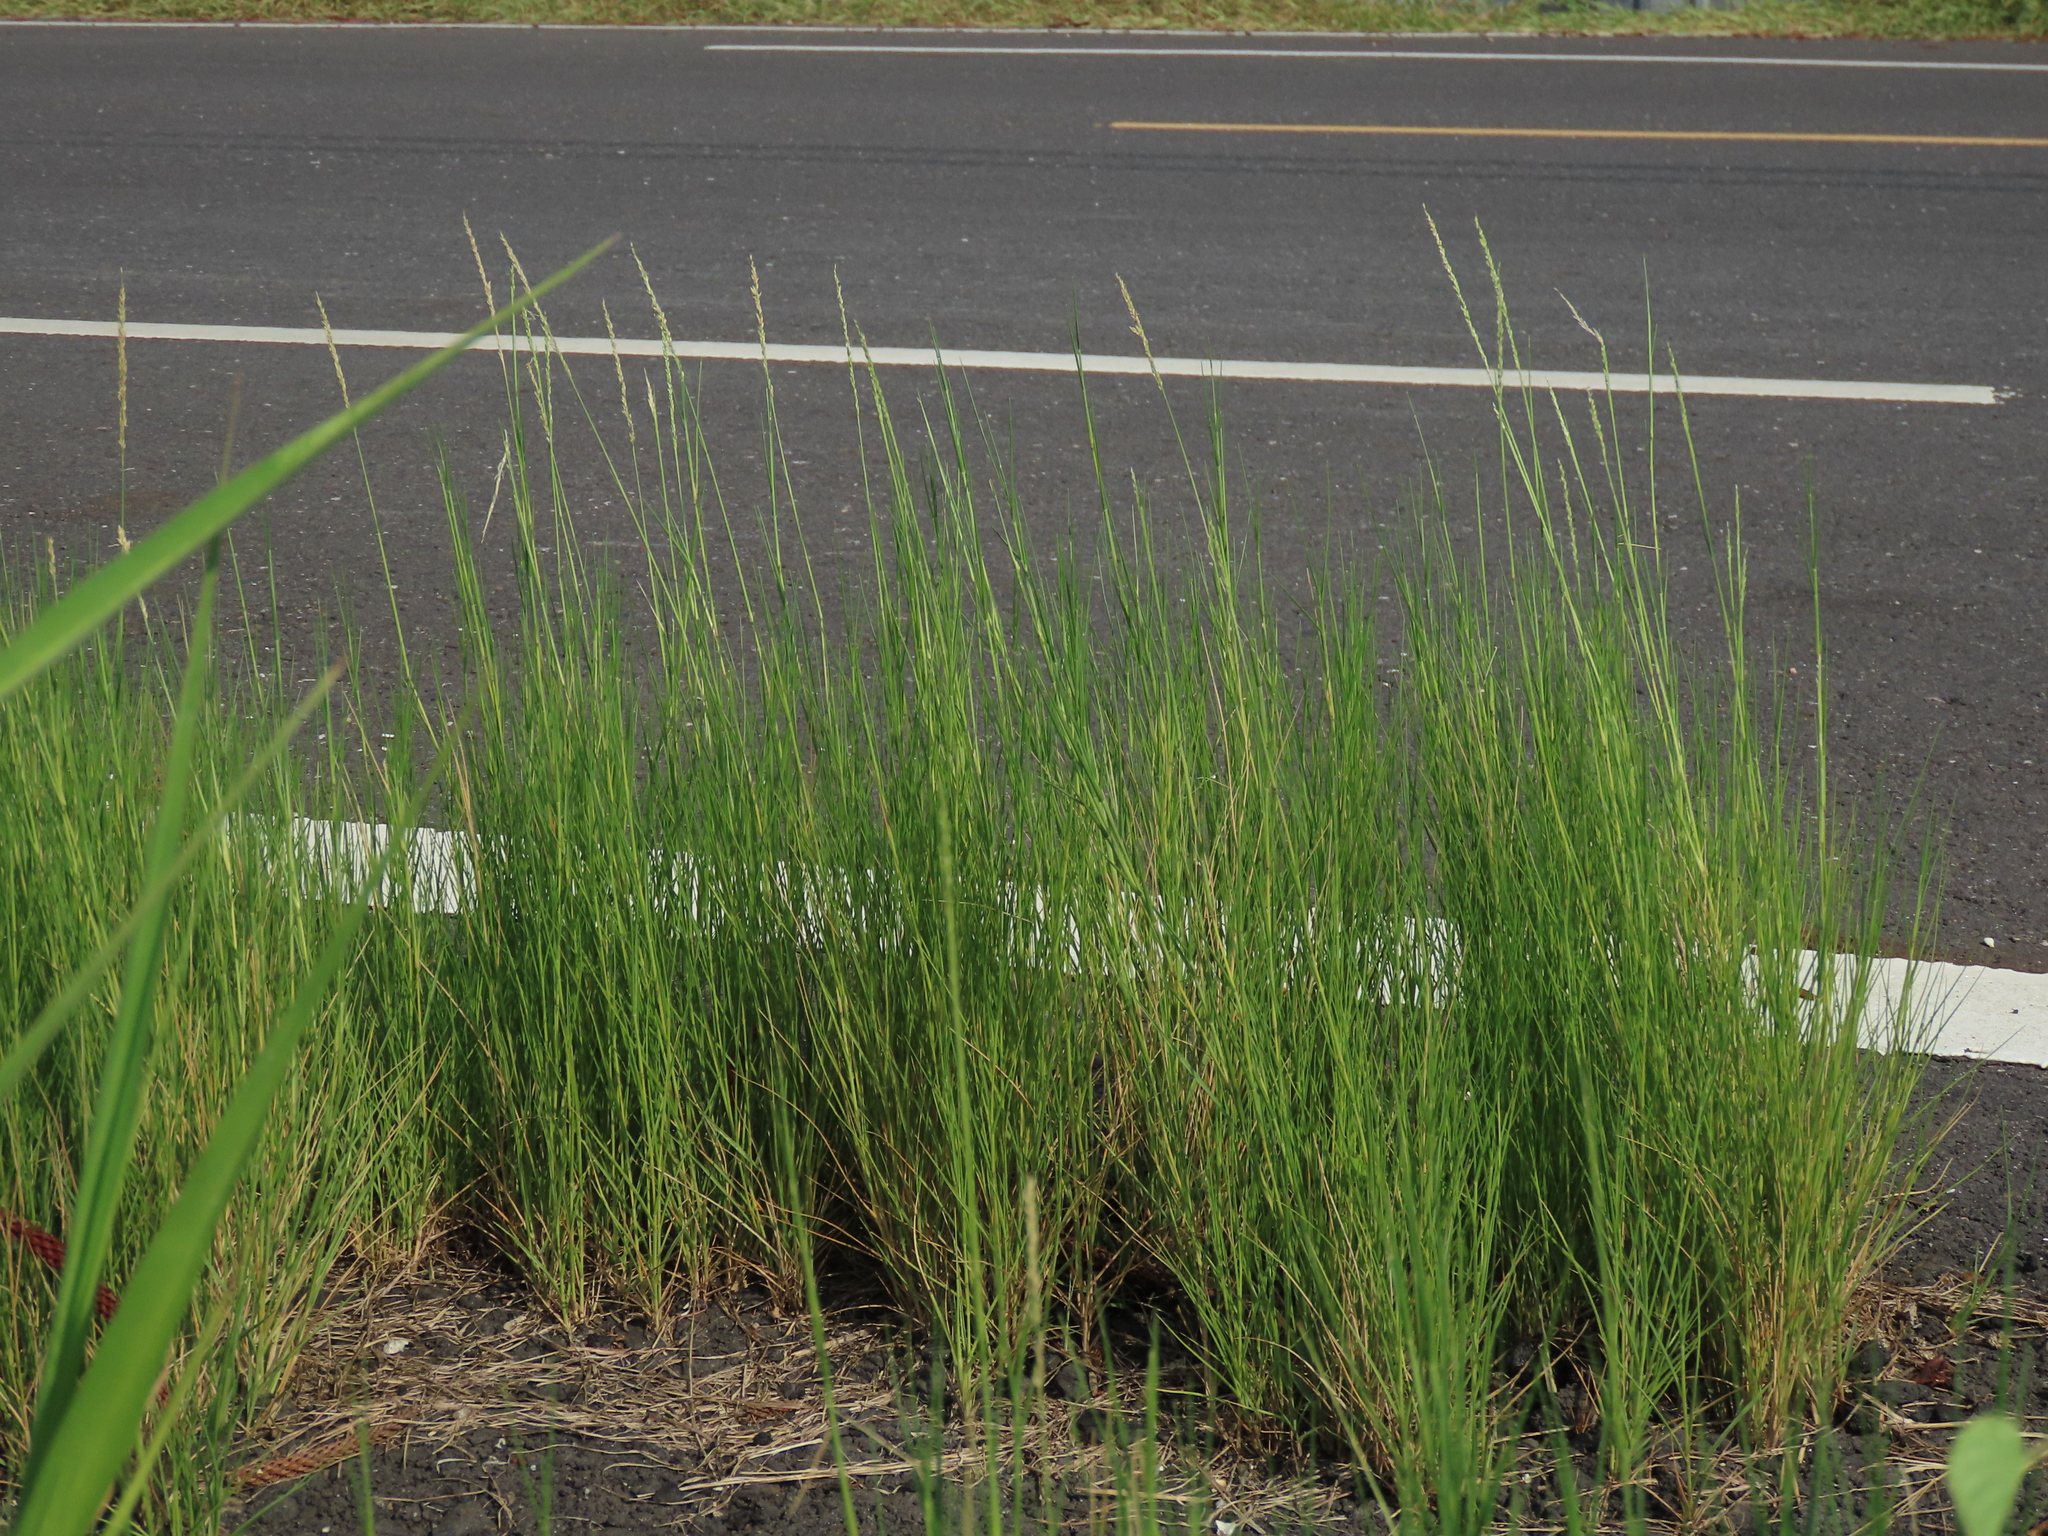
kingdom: Plantae
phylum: Tracheophyta
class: Liliopsida
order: Poales
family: Poaceae
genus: Sporobolus
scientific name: Sporobolus virginicus
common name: Beach dropseed
